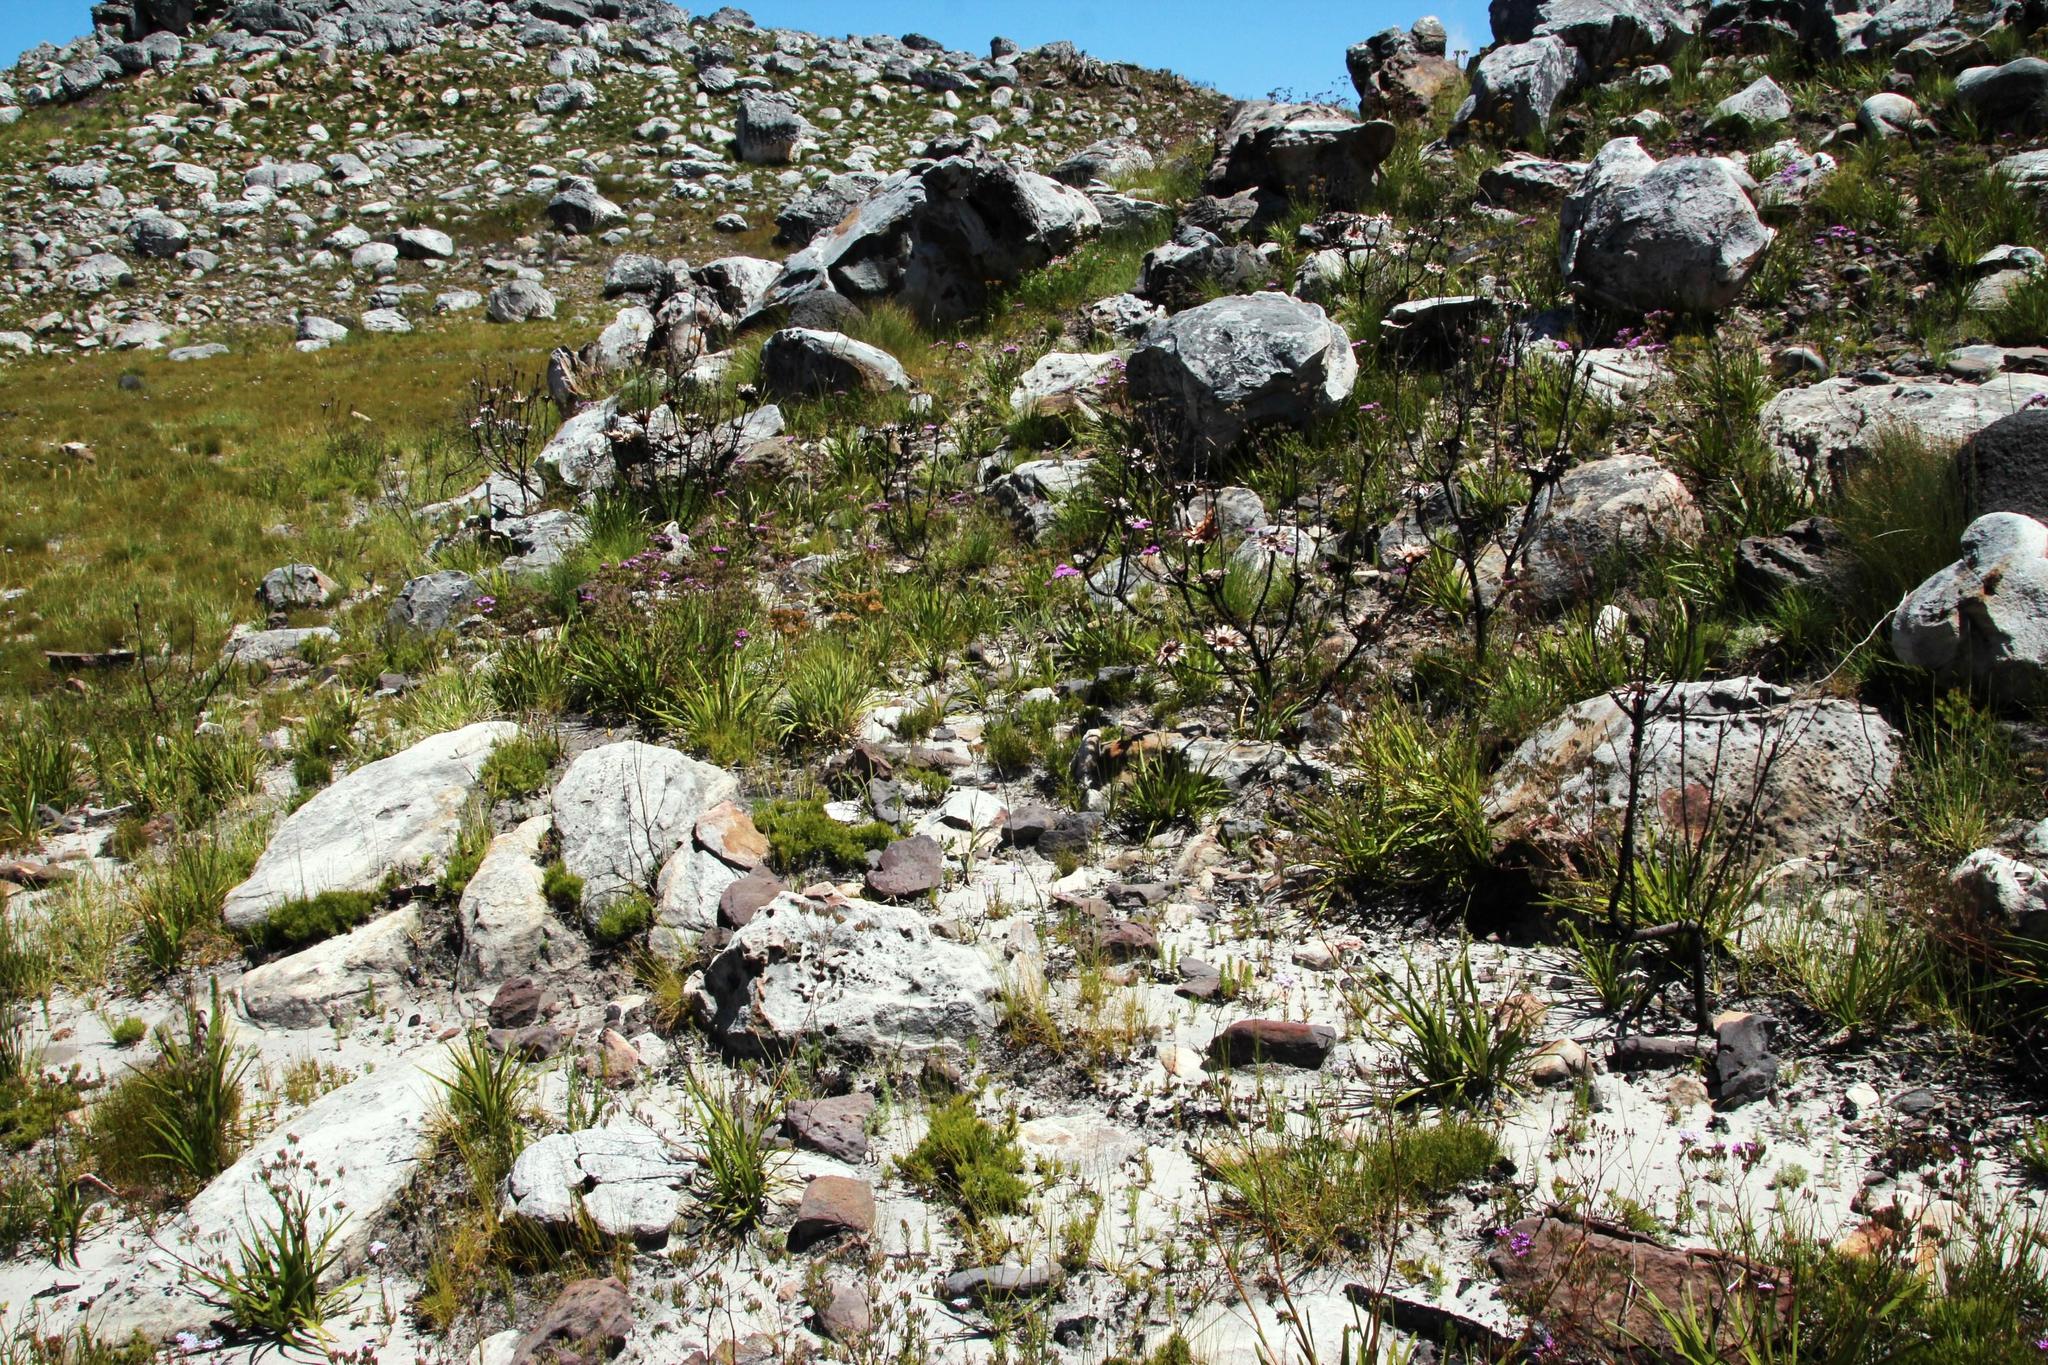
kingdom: Plantae
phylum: Tracheophyta
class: Magnoliopsida
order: Proteales
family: Proteaceae
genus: Protea
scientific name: Protea repens
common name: Sugarbush
